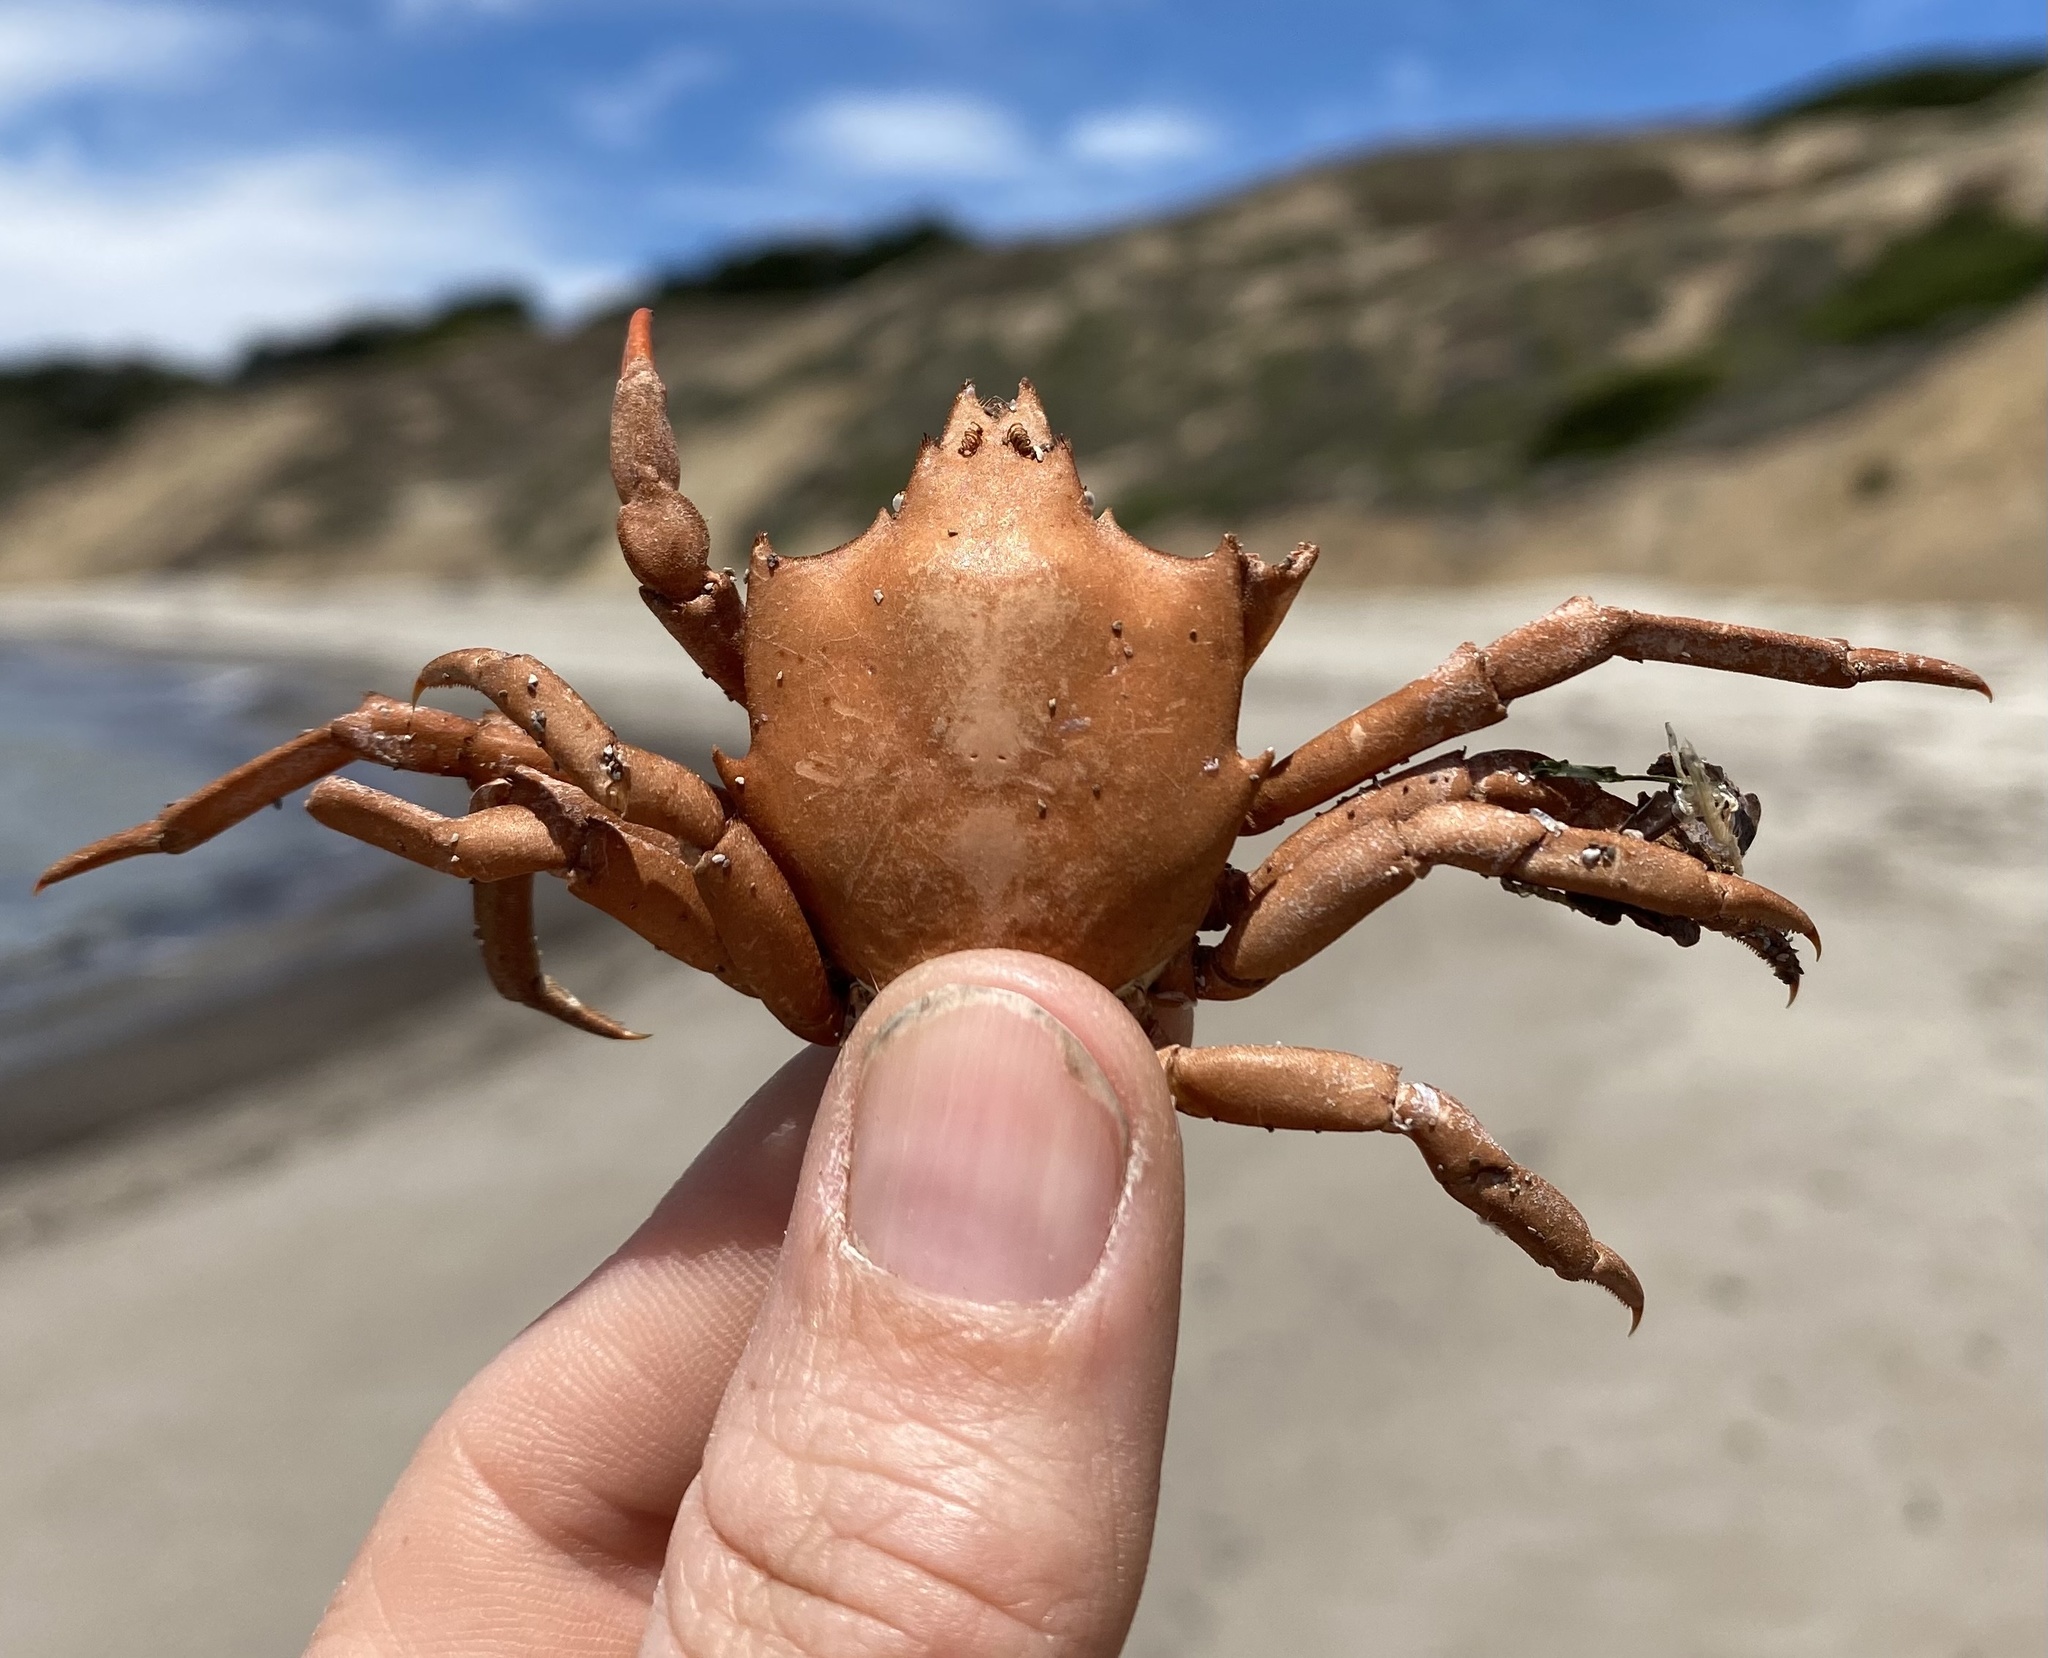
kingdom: Animalia
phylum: Arthropoda
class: Malacostraca
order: Decapoda
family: Epialtidae
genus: Pugettia
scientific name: Pugettia producta
